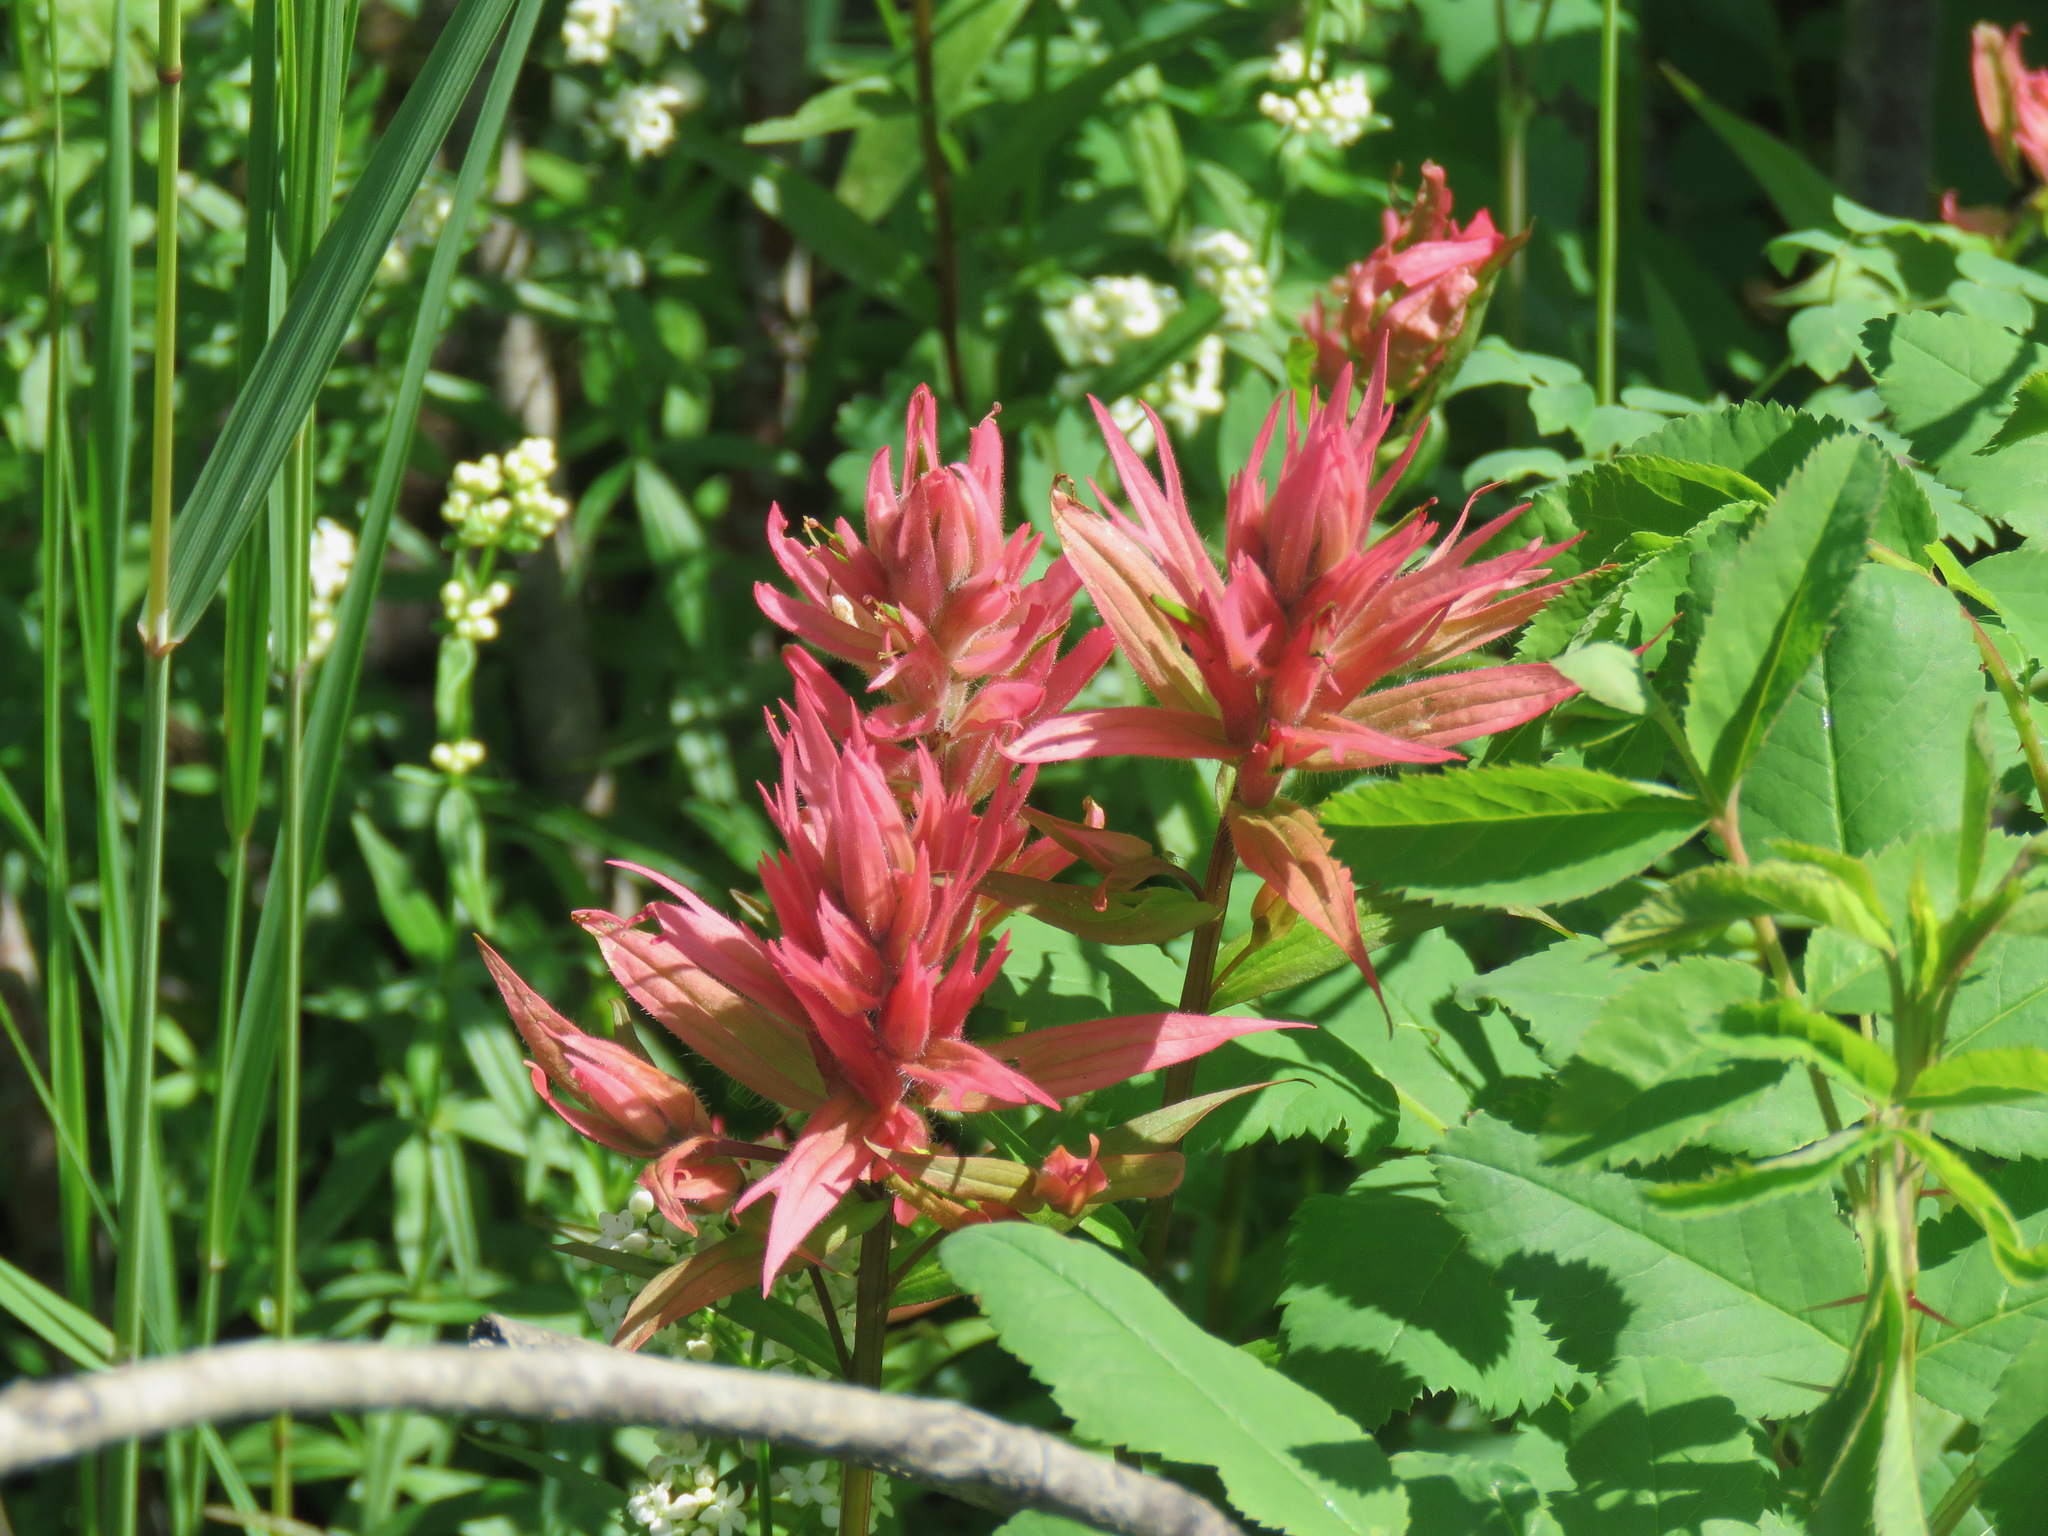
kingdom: Plantae
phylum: Tracheophyta
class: Magnoliopsida
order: Lamiales
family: Orobanchaceae
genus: Castilleja
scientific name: Castilleja miniata
